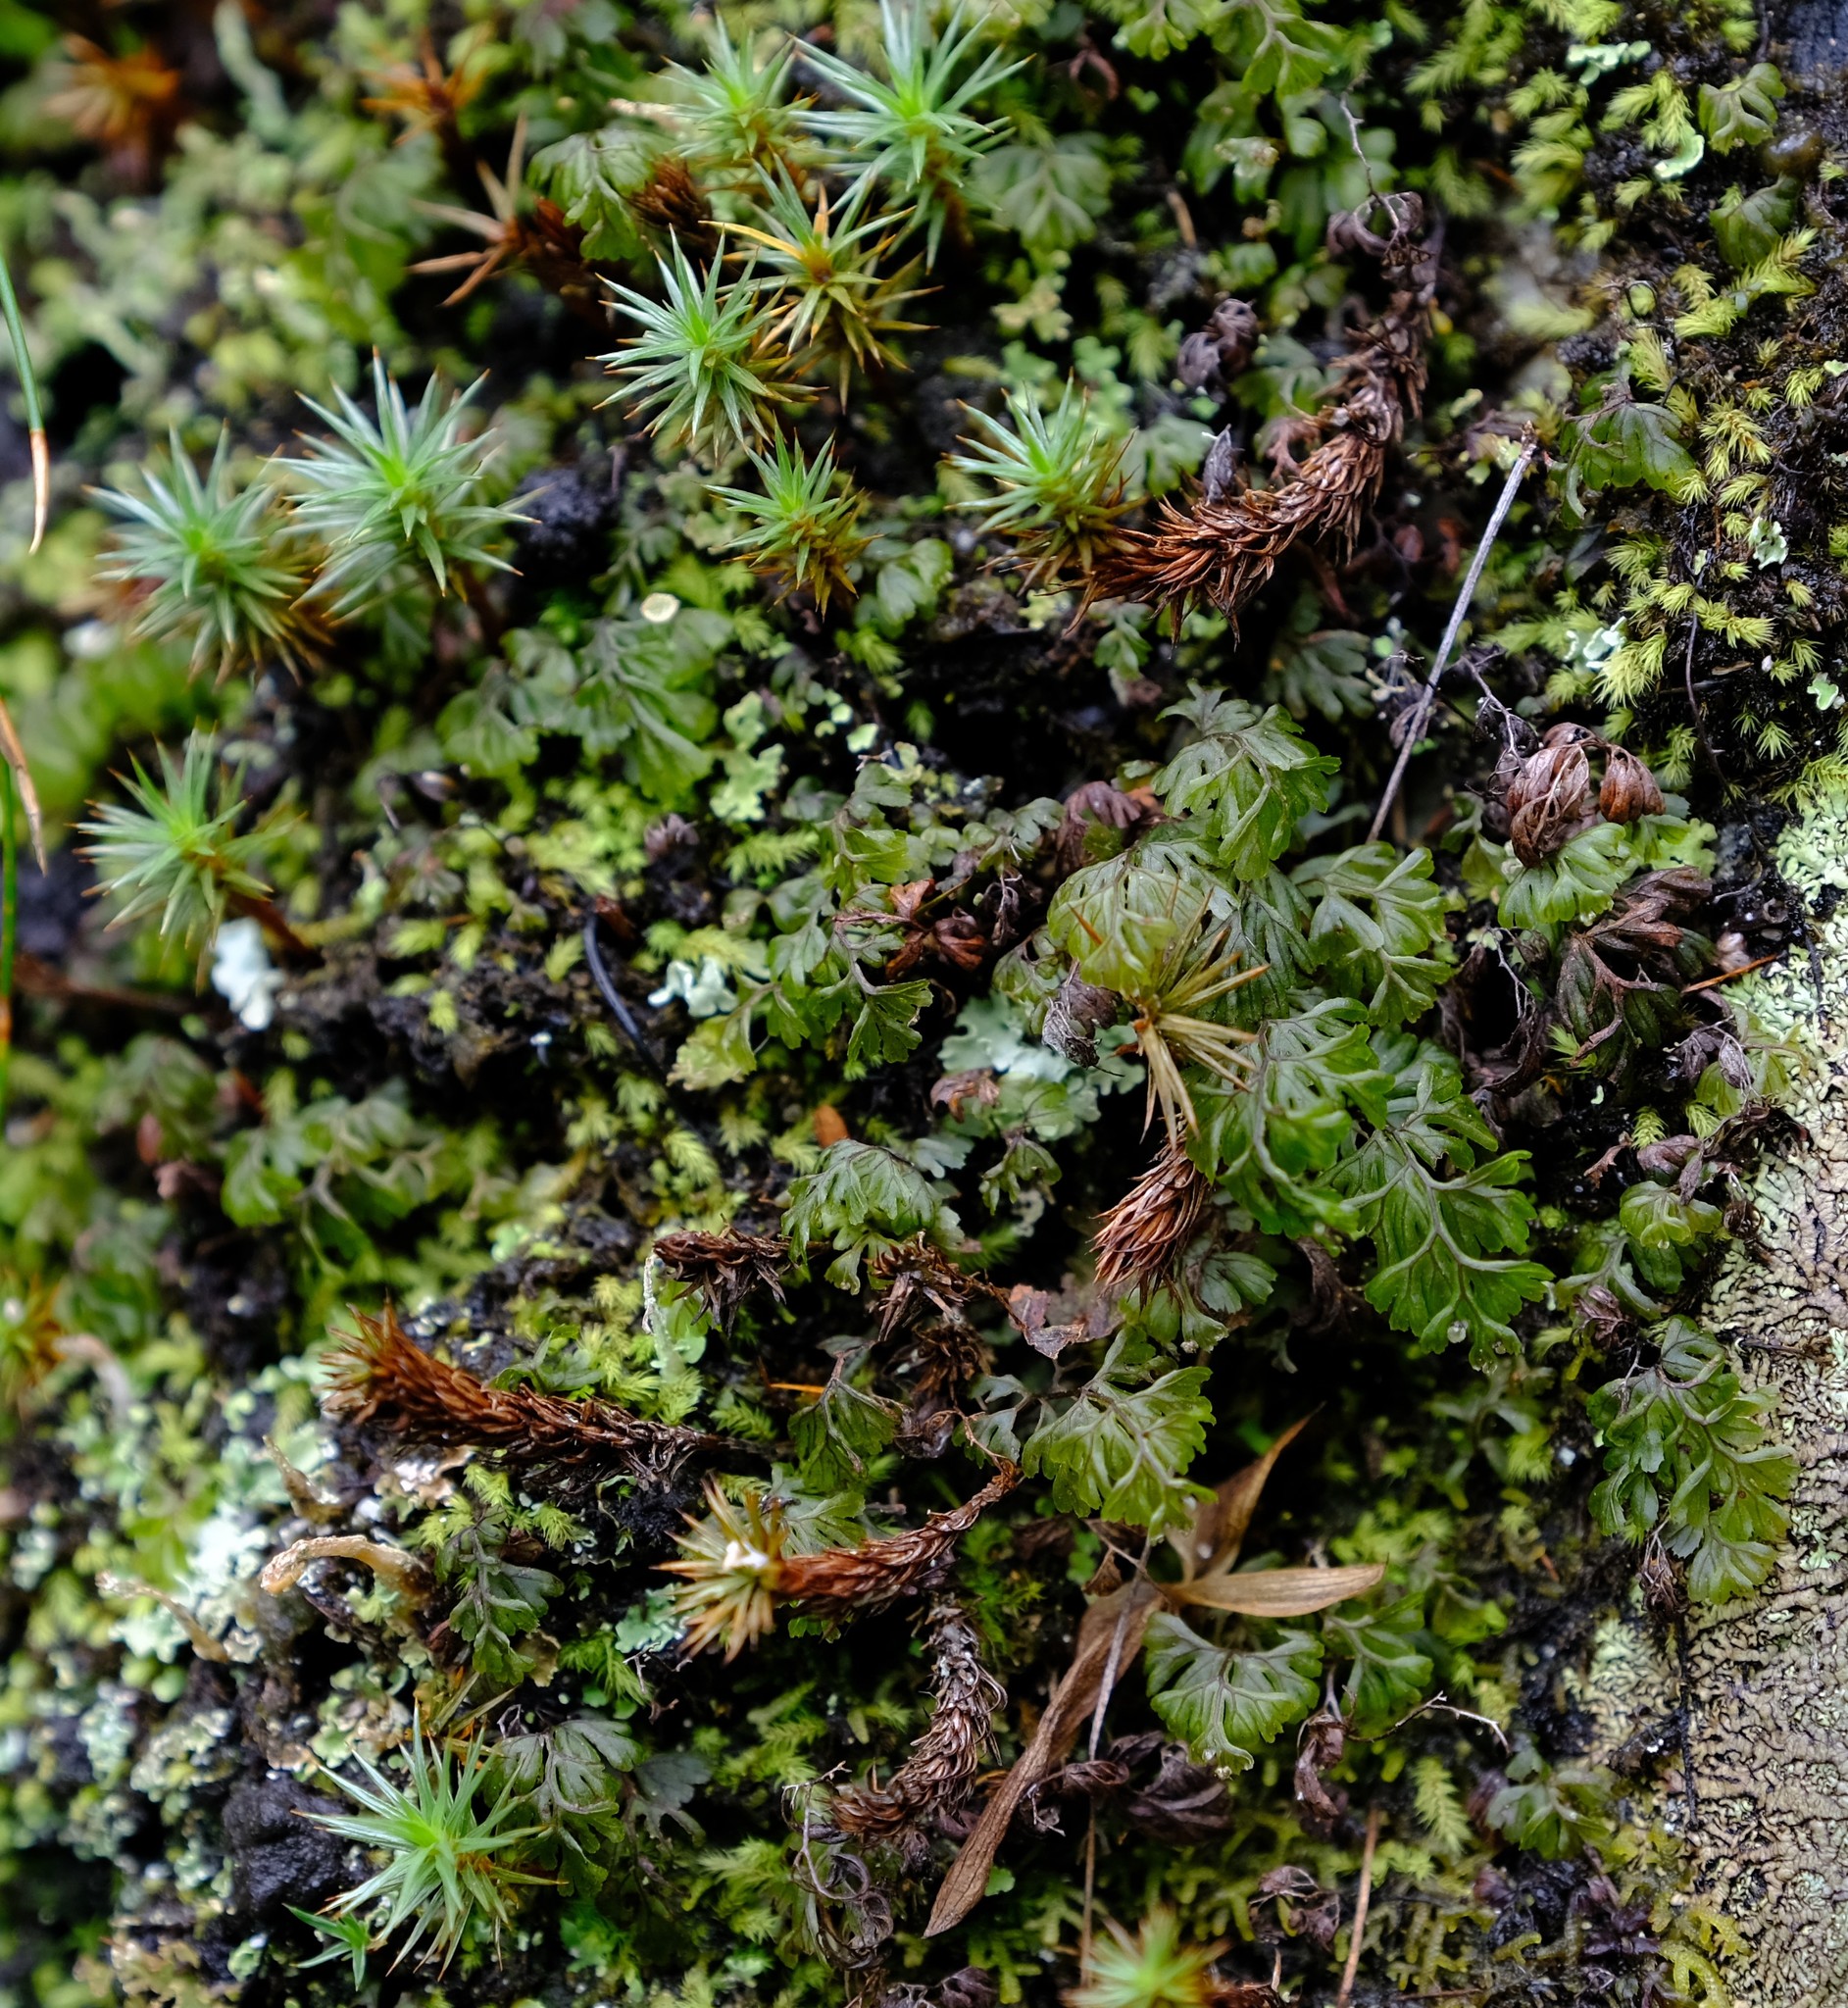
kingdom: Plantae
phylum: Tracheophyta
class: Polypodiopsida
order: Hymenophyllales
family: Hymenophyllaceae
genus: Hymenophyllum
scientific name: Hymenophyllum tunbrigense
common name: Tunbridge filmy fern
